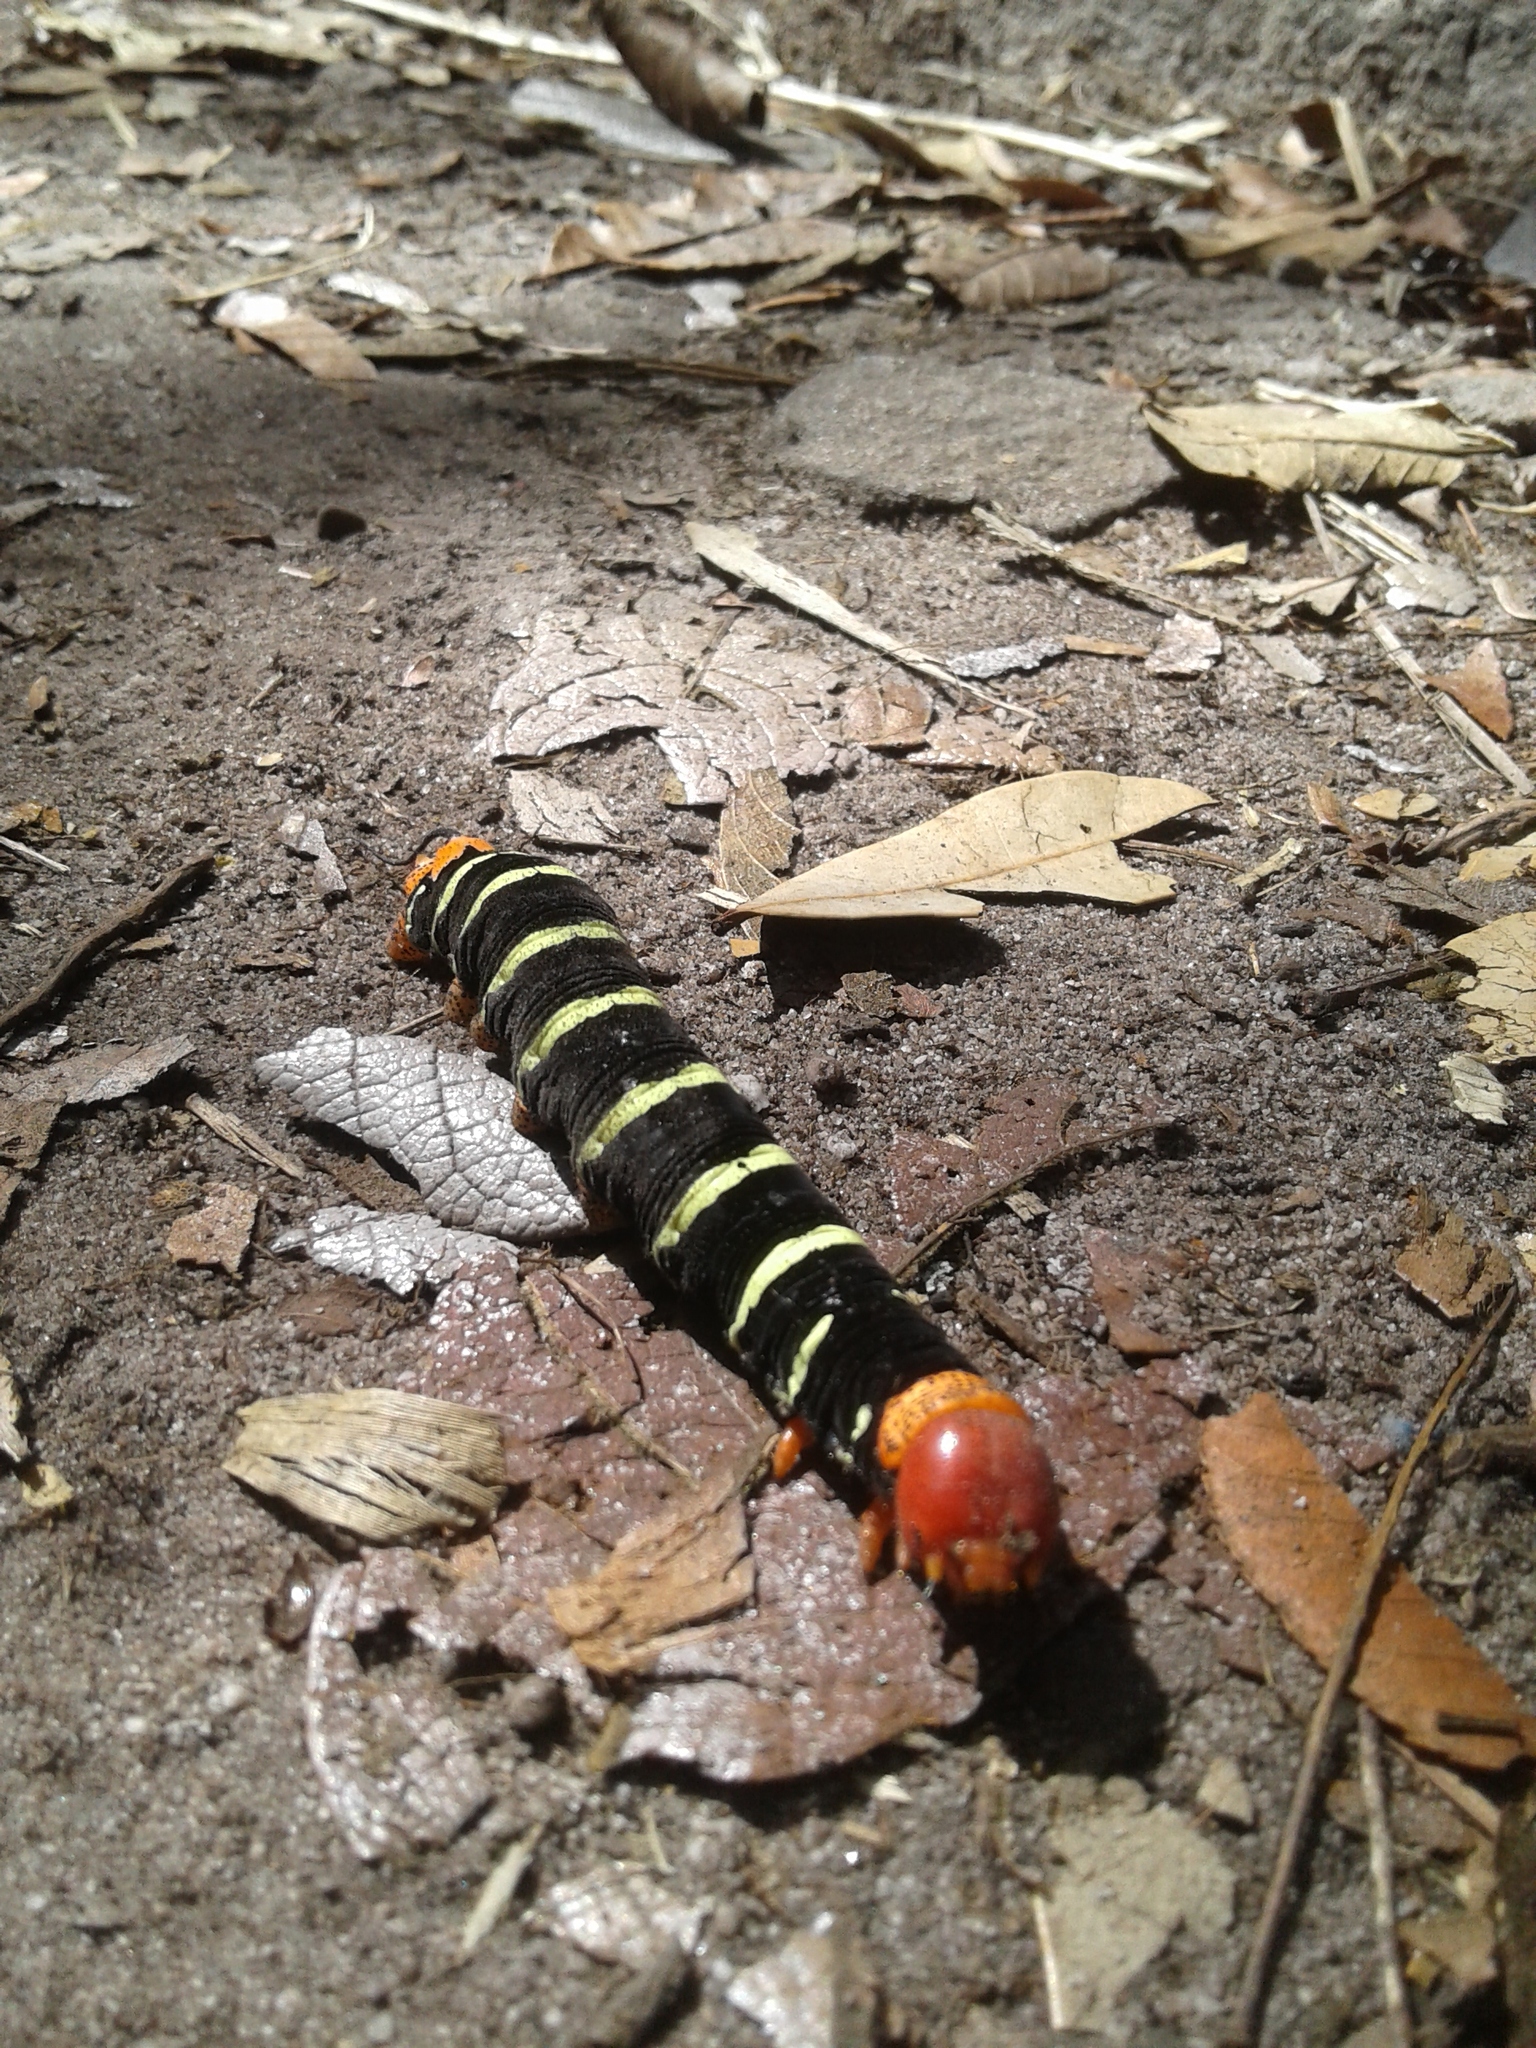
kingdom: Animalia
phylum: Arthropoda
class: Insecta
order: Lepidoptera
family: Sphingidae
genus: Pseudosphinx
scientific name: Pseudosphinx tetrio
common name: Tetrio sphinx
